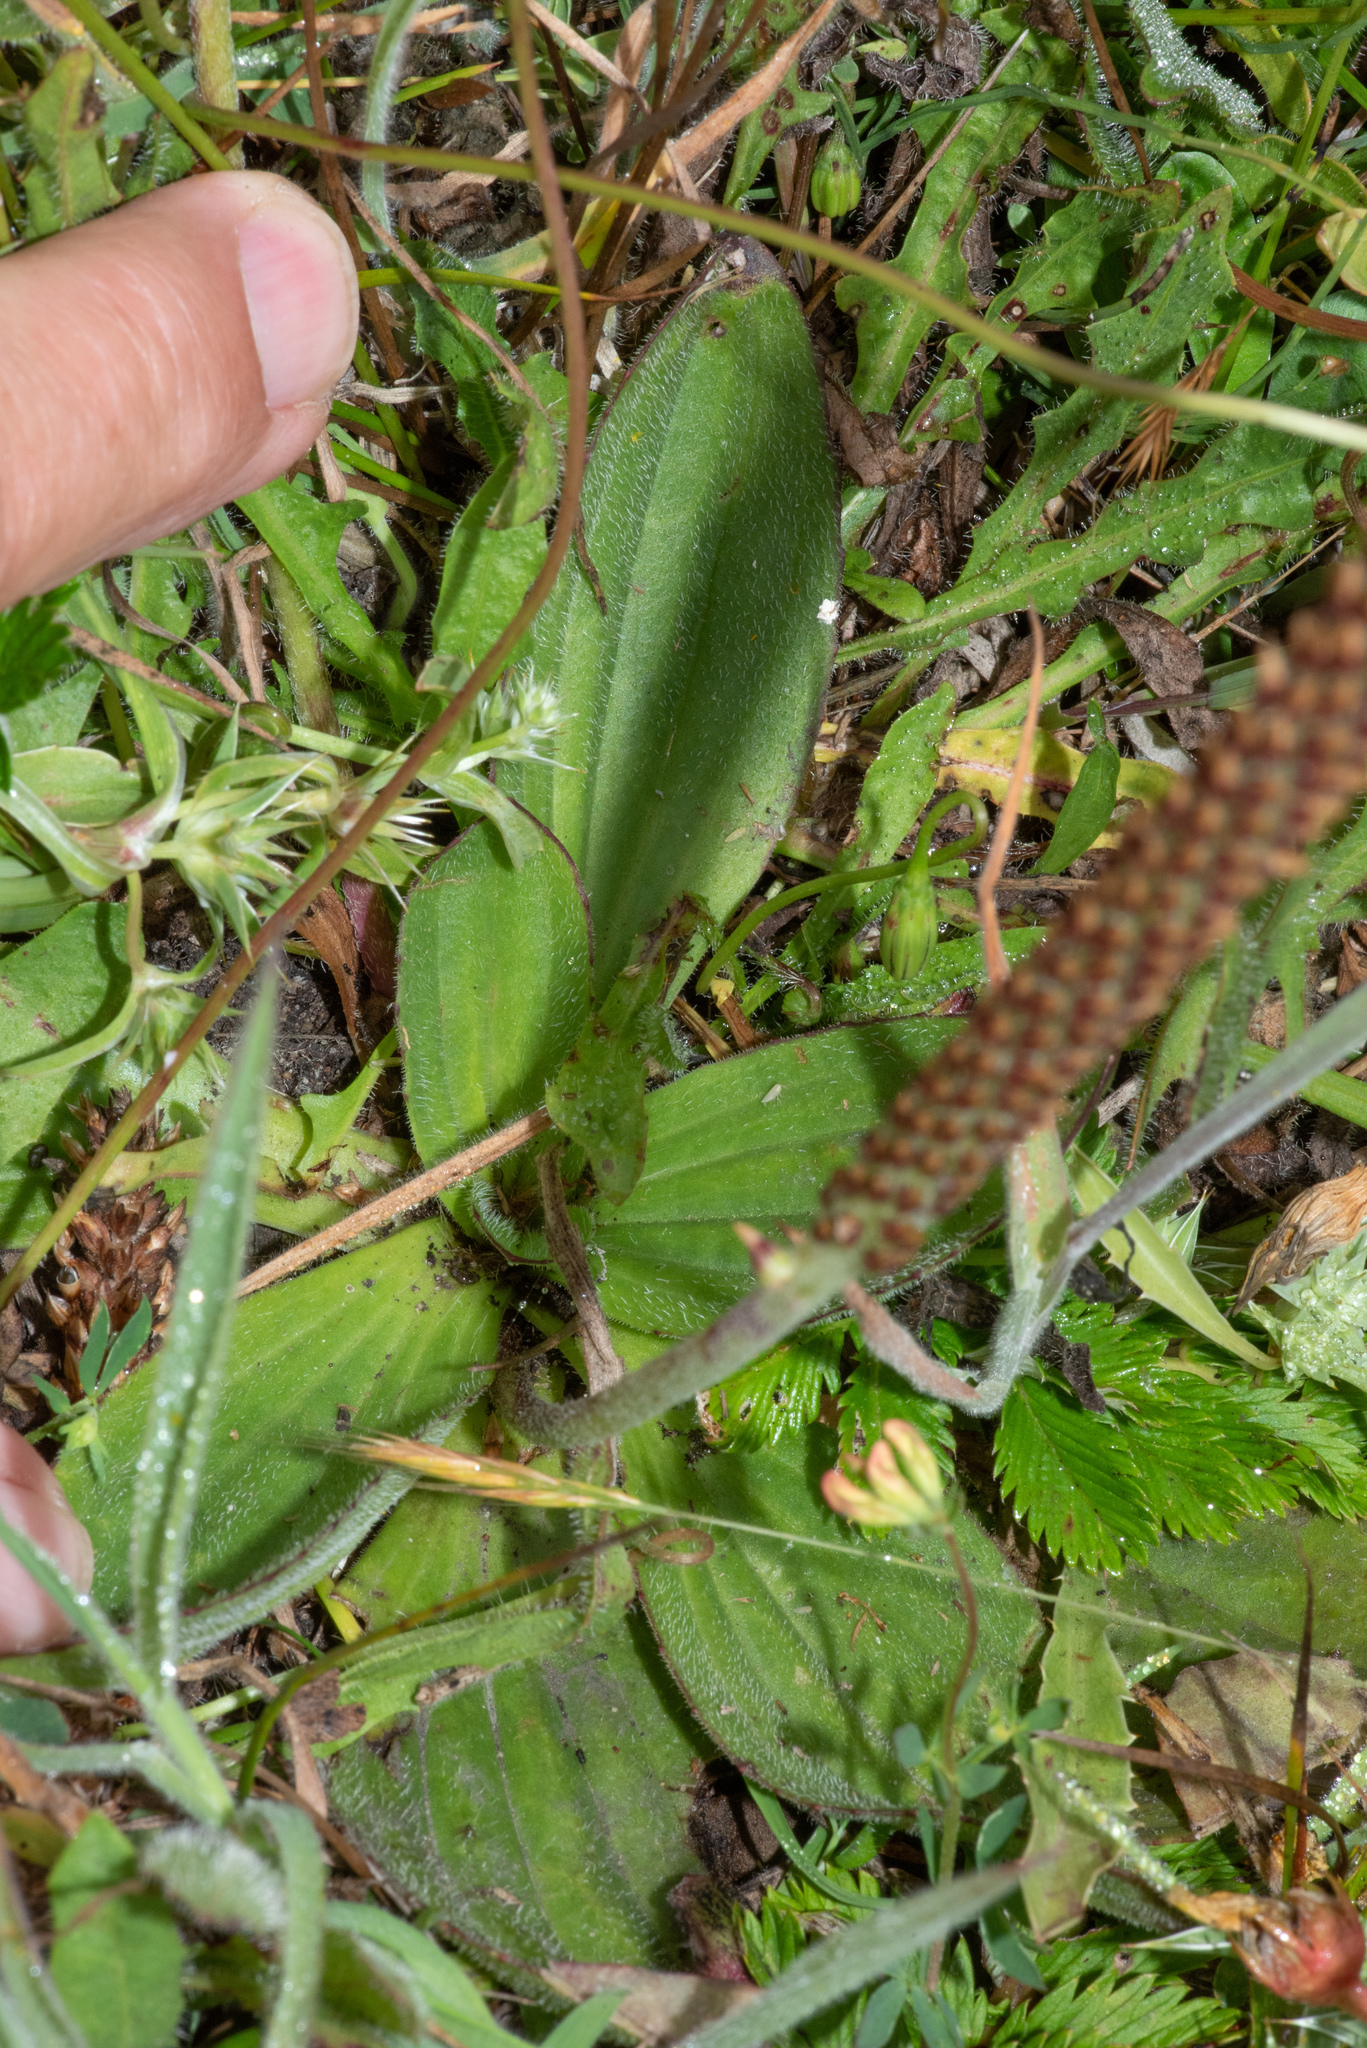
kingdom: Plantae
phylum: Tracheophyta
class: Magnoliopsida
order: Lamiales
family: Plantaginaceae
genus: Plantago
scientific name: Plantago subnuda
